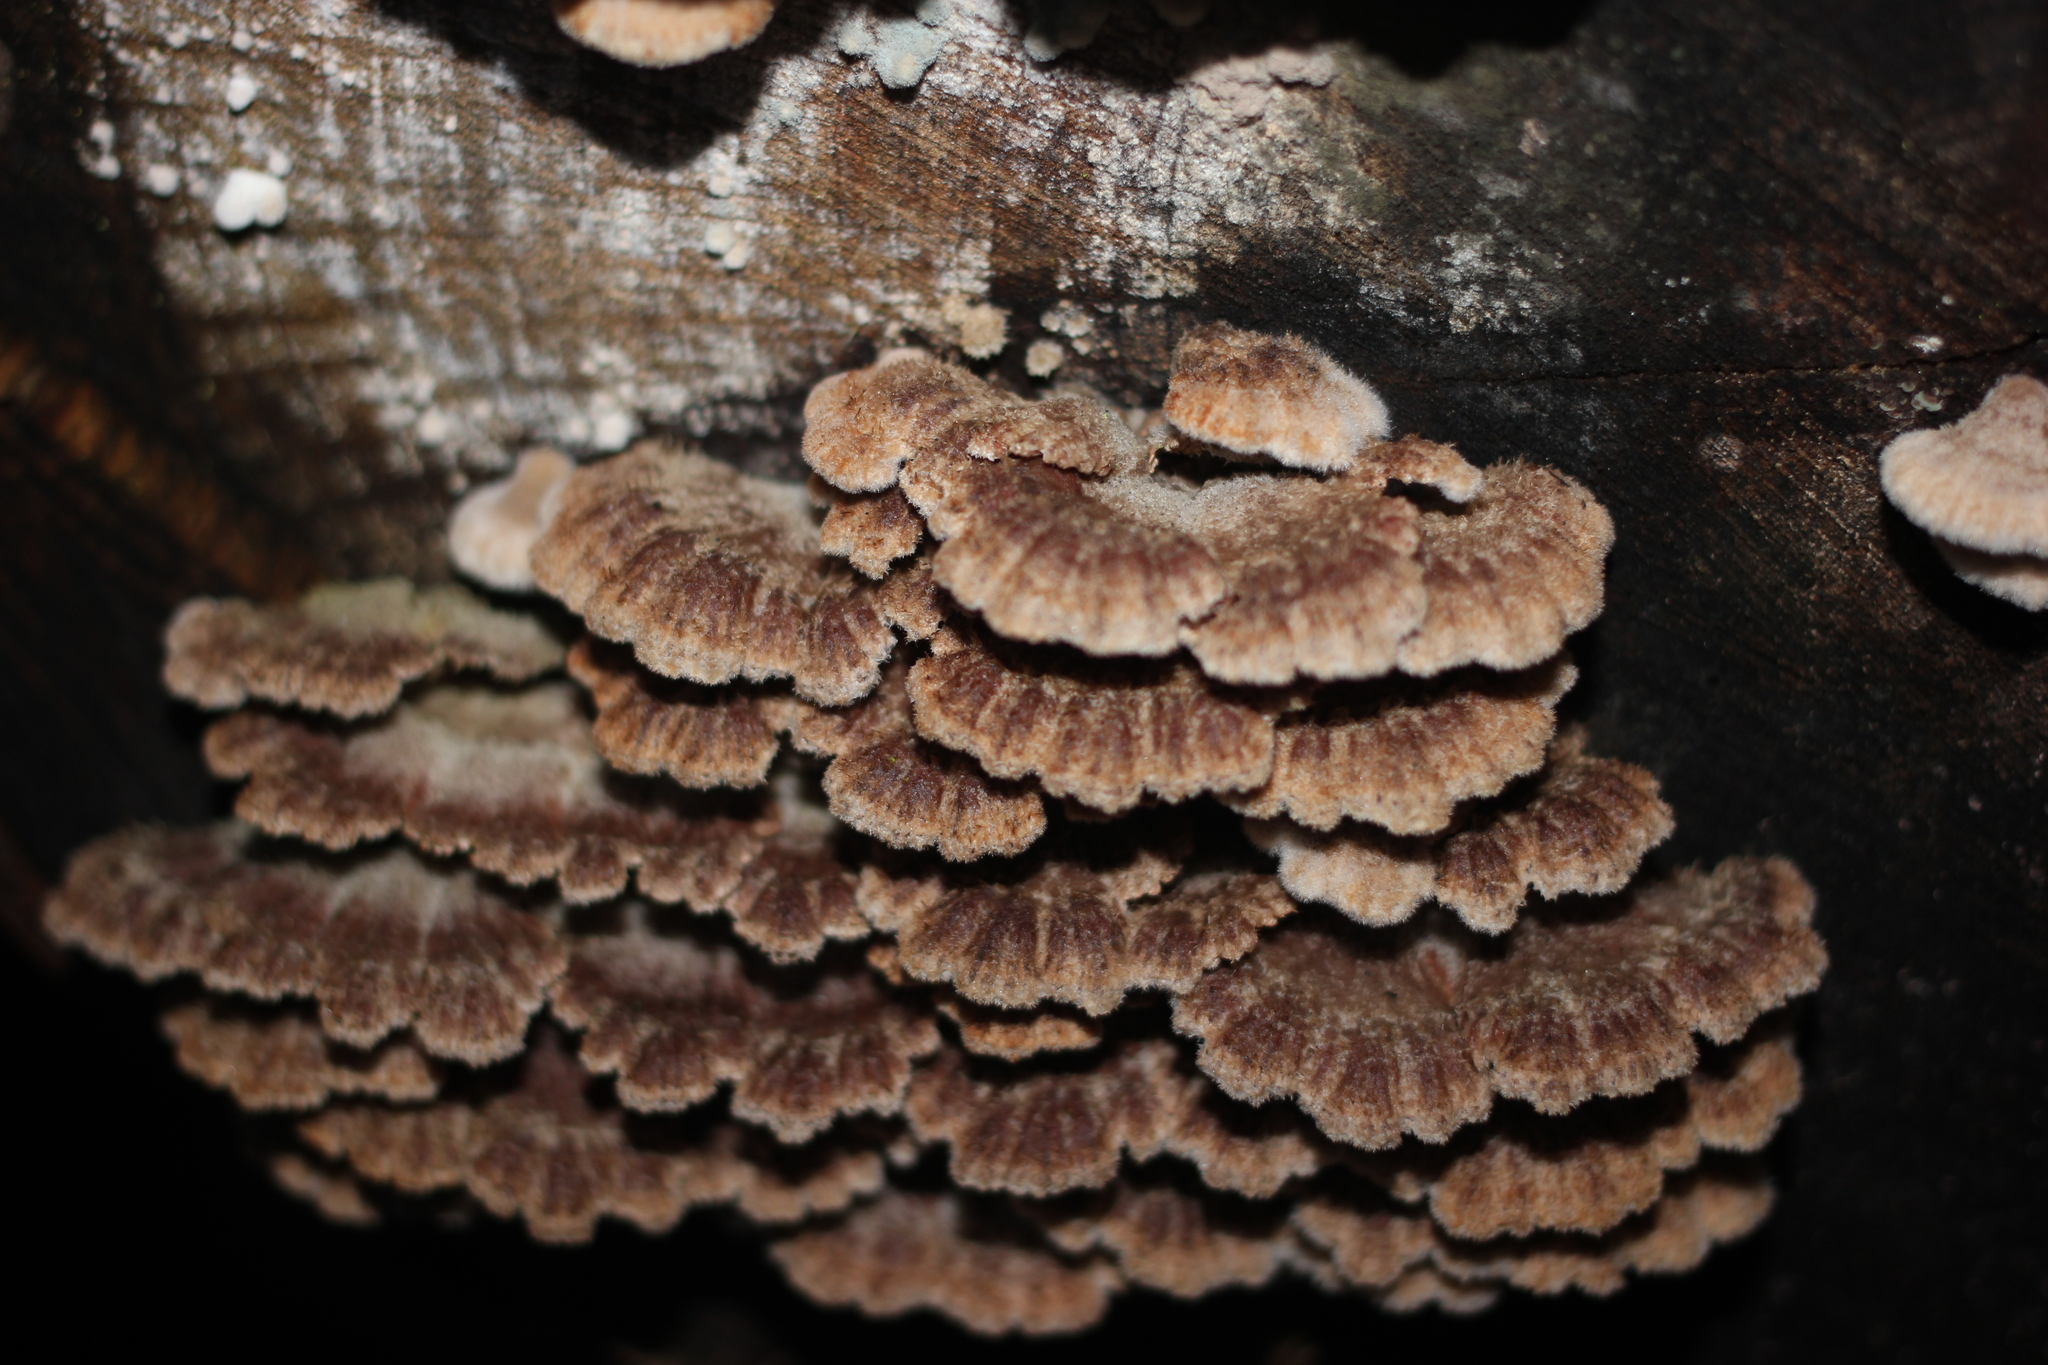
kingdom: Fungi
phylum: Basidiomycota
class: Agaricomycetes
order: Agaricales
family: Schizophyllaceae
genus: Schizophyllum
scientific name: Schizophyllum commune
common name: Common porecrust
